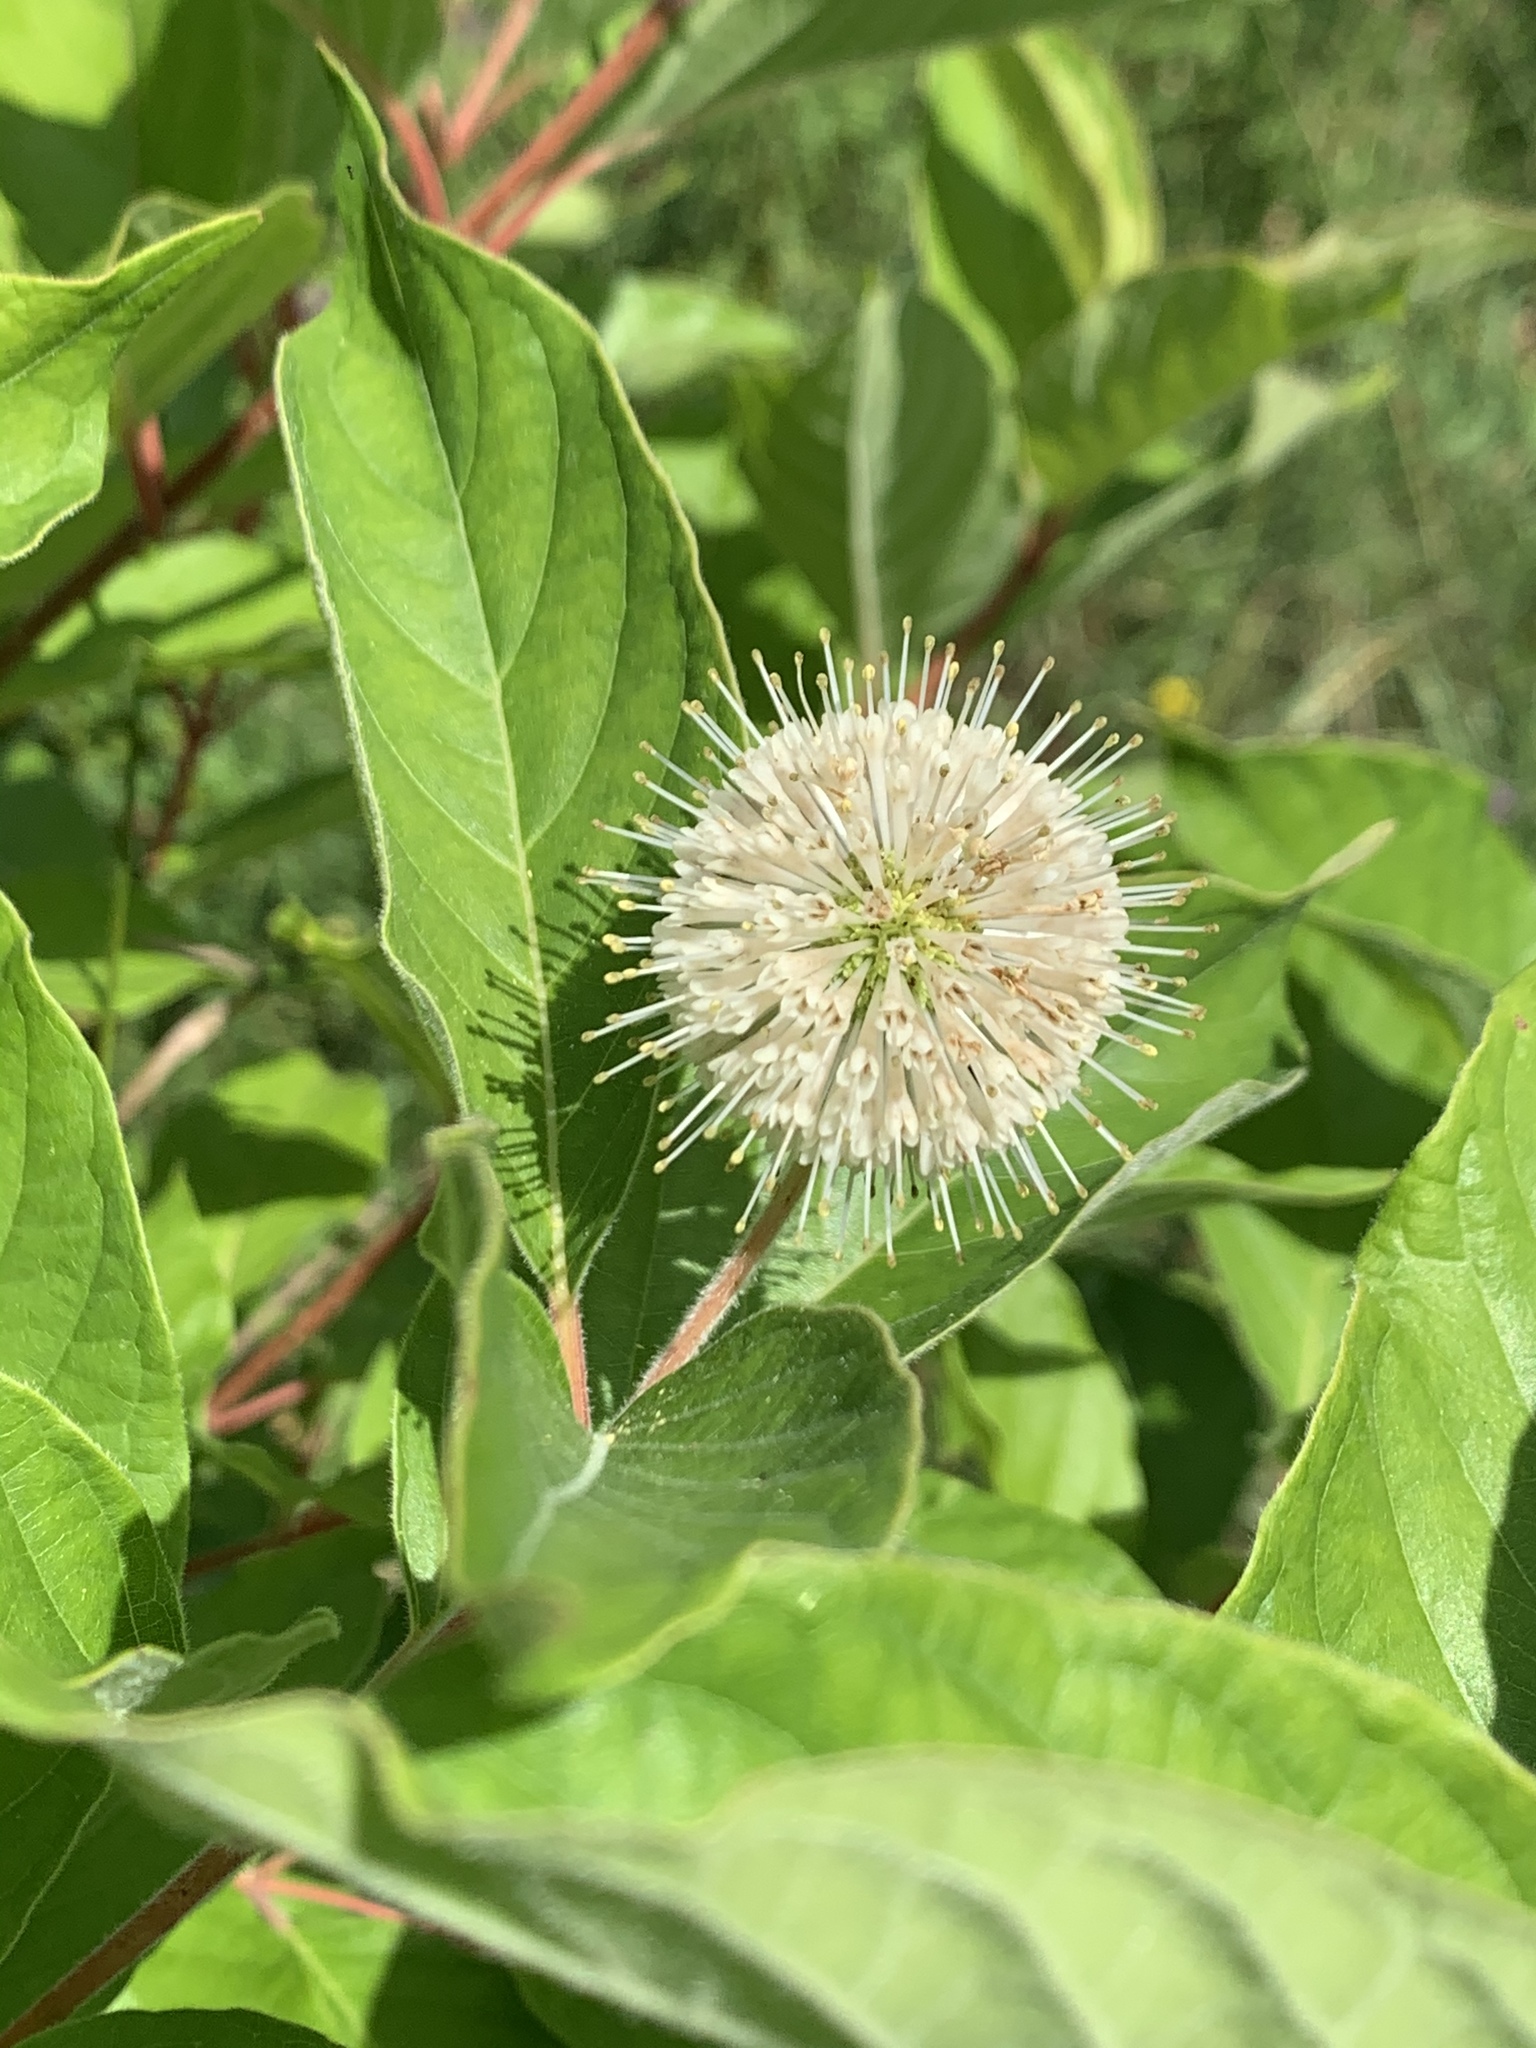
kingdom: Plantae
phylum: Tracheophyta
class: Magnoliopsida
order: Gentianales
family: Rubiaceae
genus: Cephalanthus
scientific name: Cephalanthus occidentalis
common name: Button-willow
